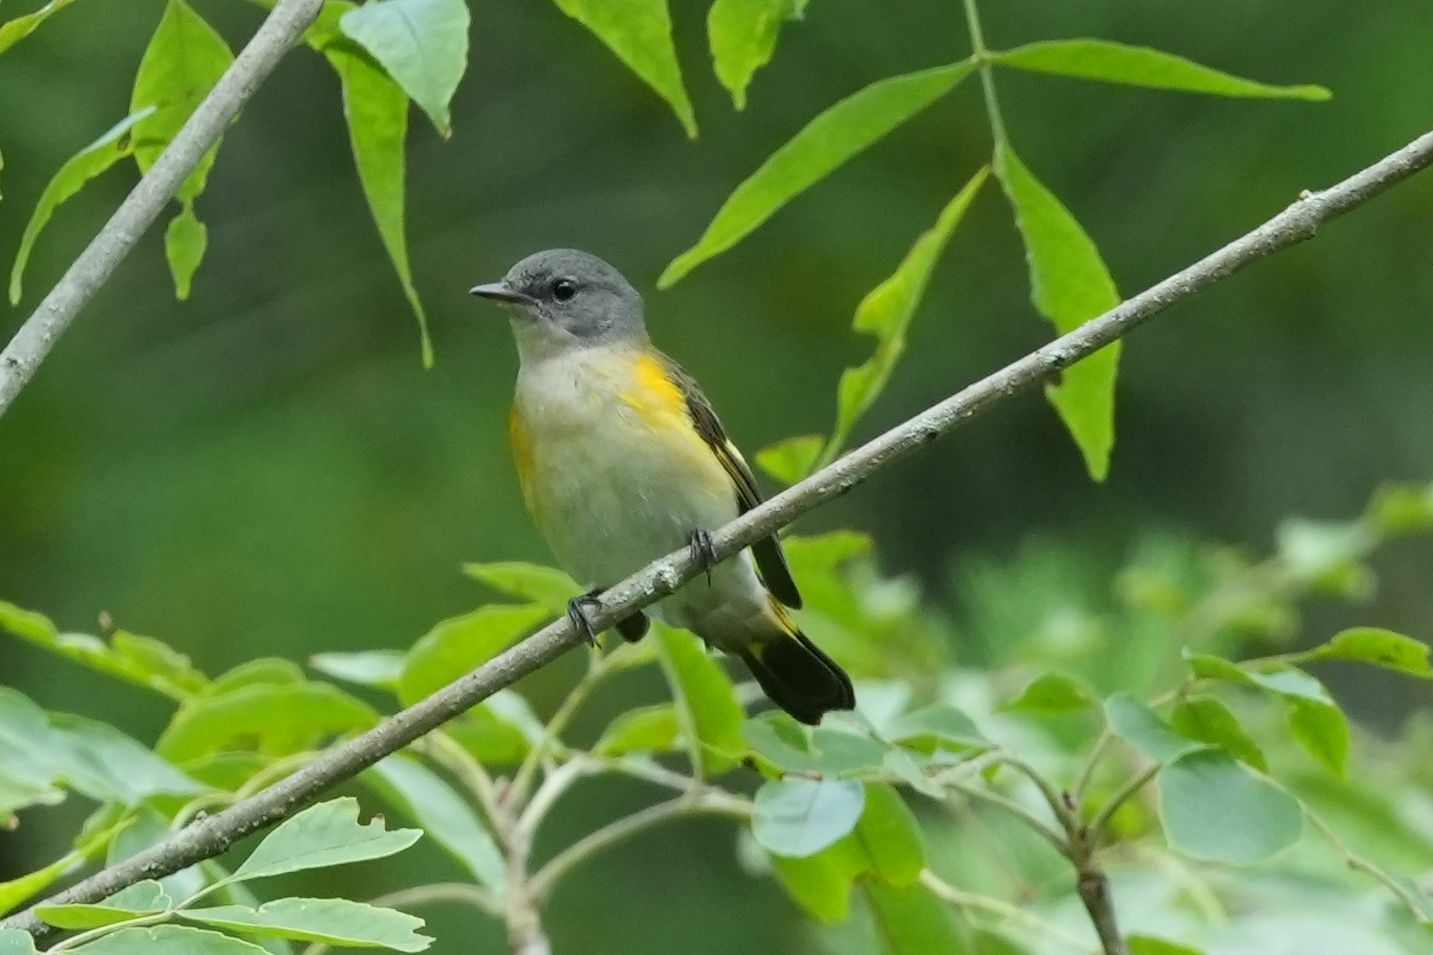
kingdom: Animalia
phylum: Chordata
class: Aves
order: Passeriformes
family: Parulidae
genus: Setophaga
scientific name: Setophaga ruticilla
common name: American redstart
